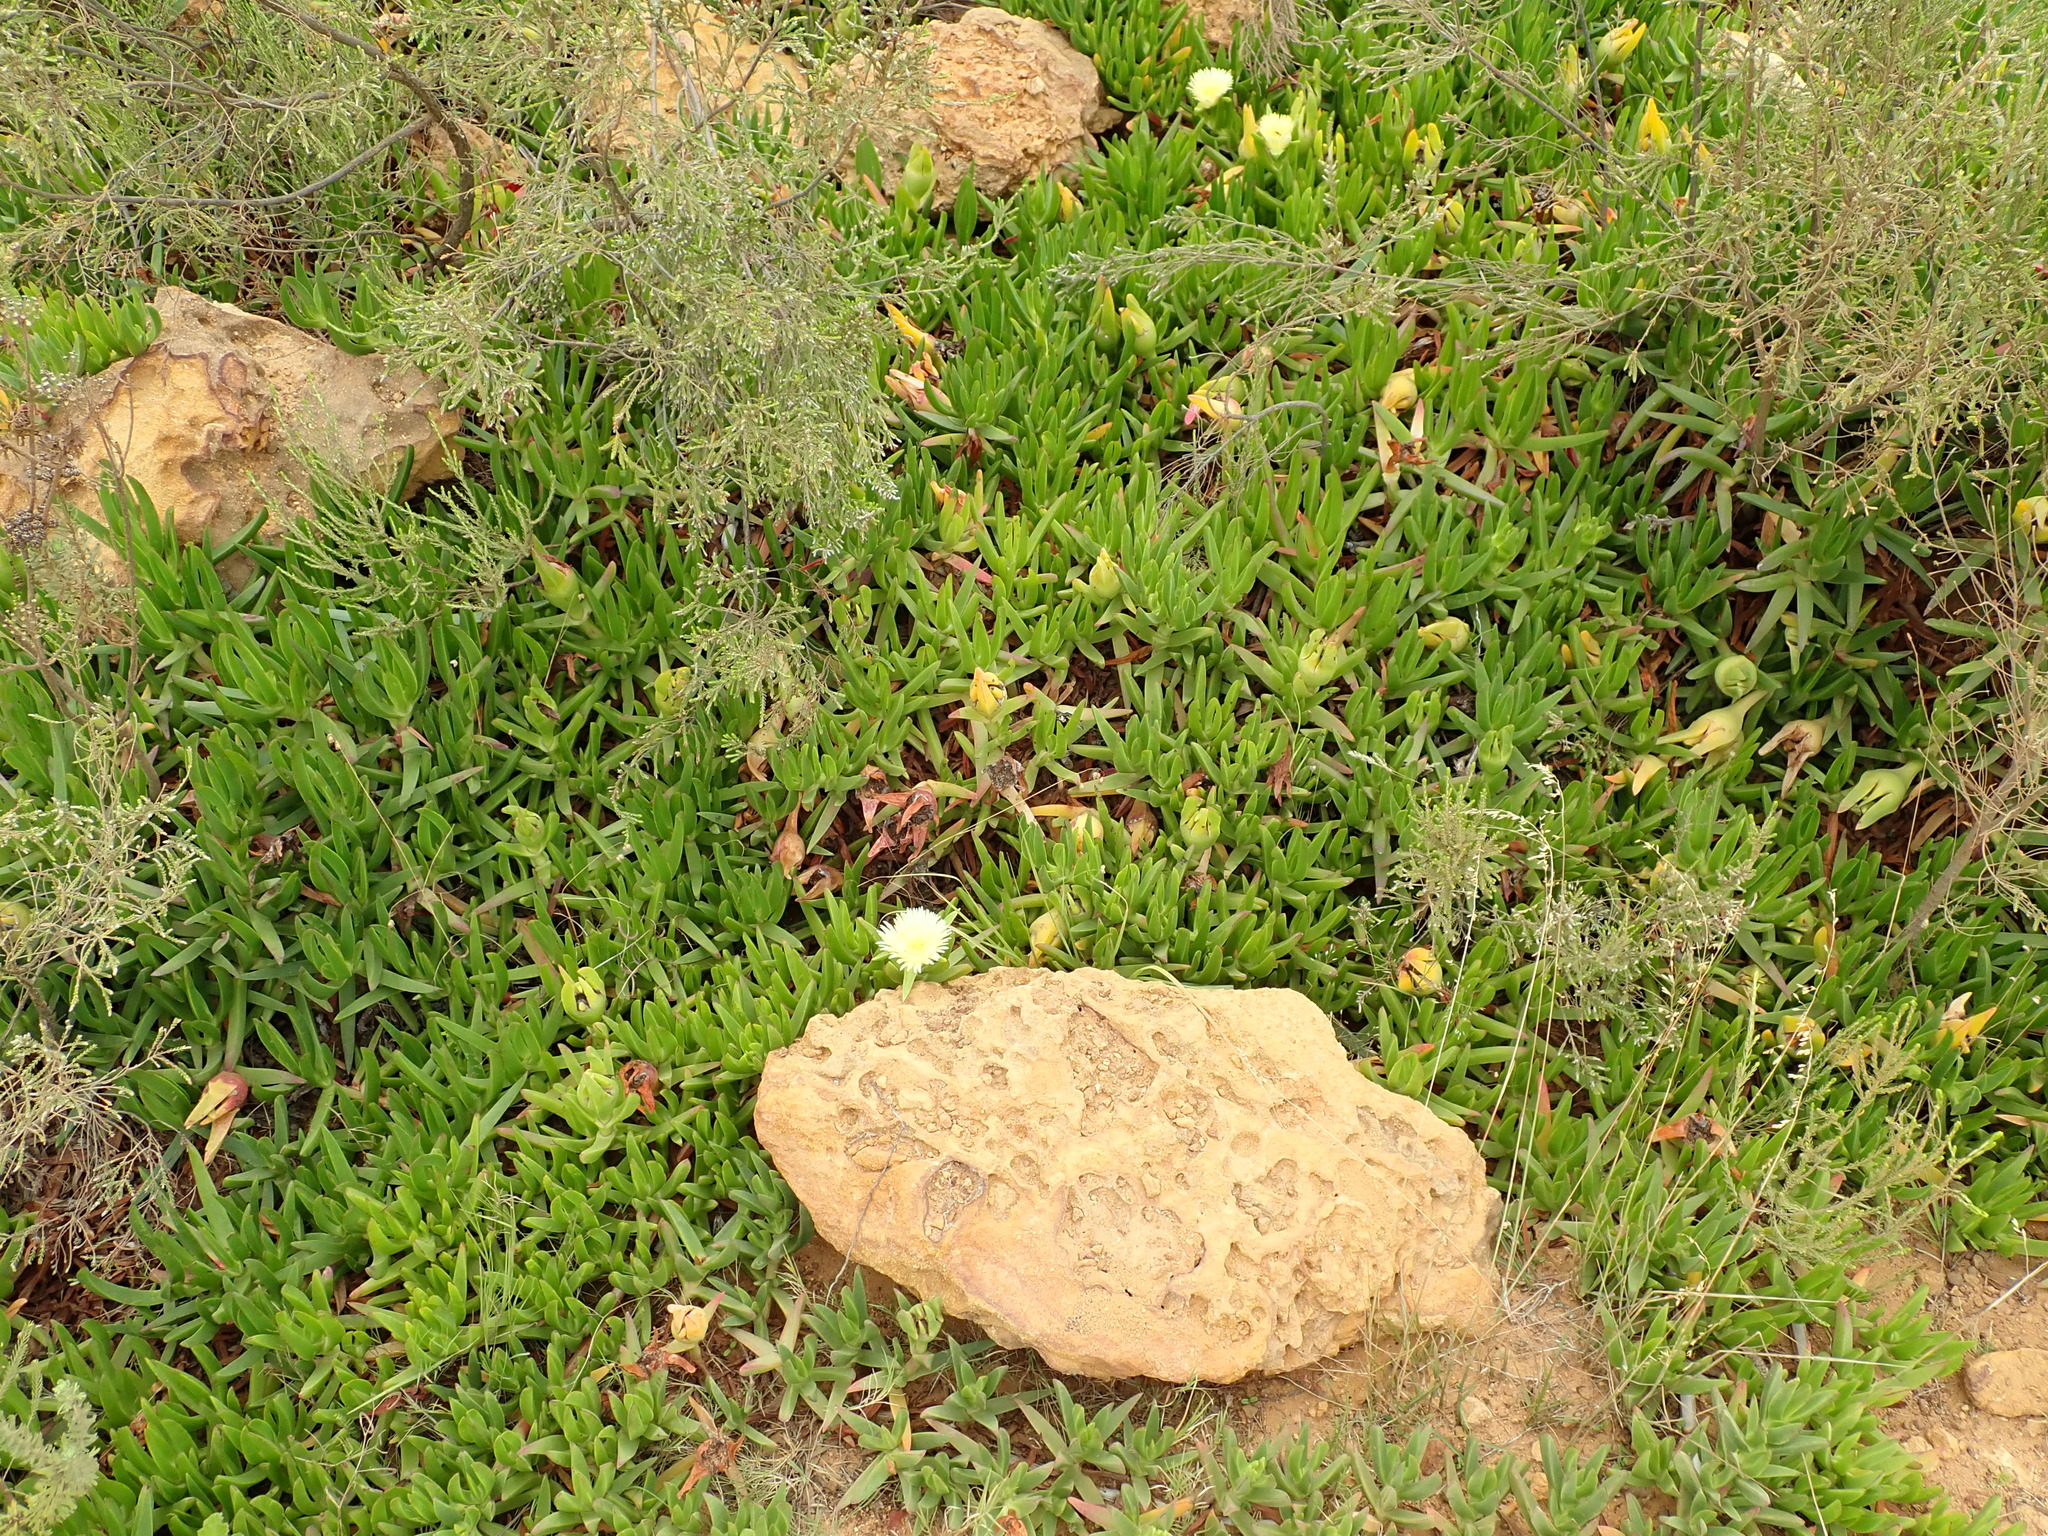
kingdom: Plantae
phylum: Tracheophyta
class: Magnoliopsida
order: Caryophyllales
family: Aizoaceae
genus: Carpobrotus
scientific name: Carpobrotus edulis
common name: Hottentot-fig
